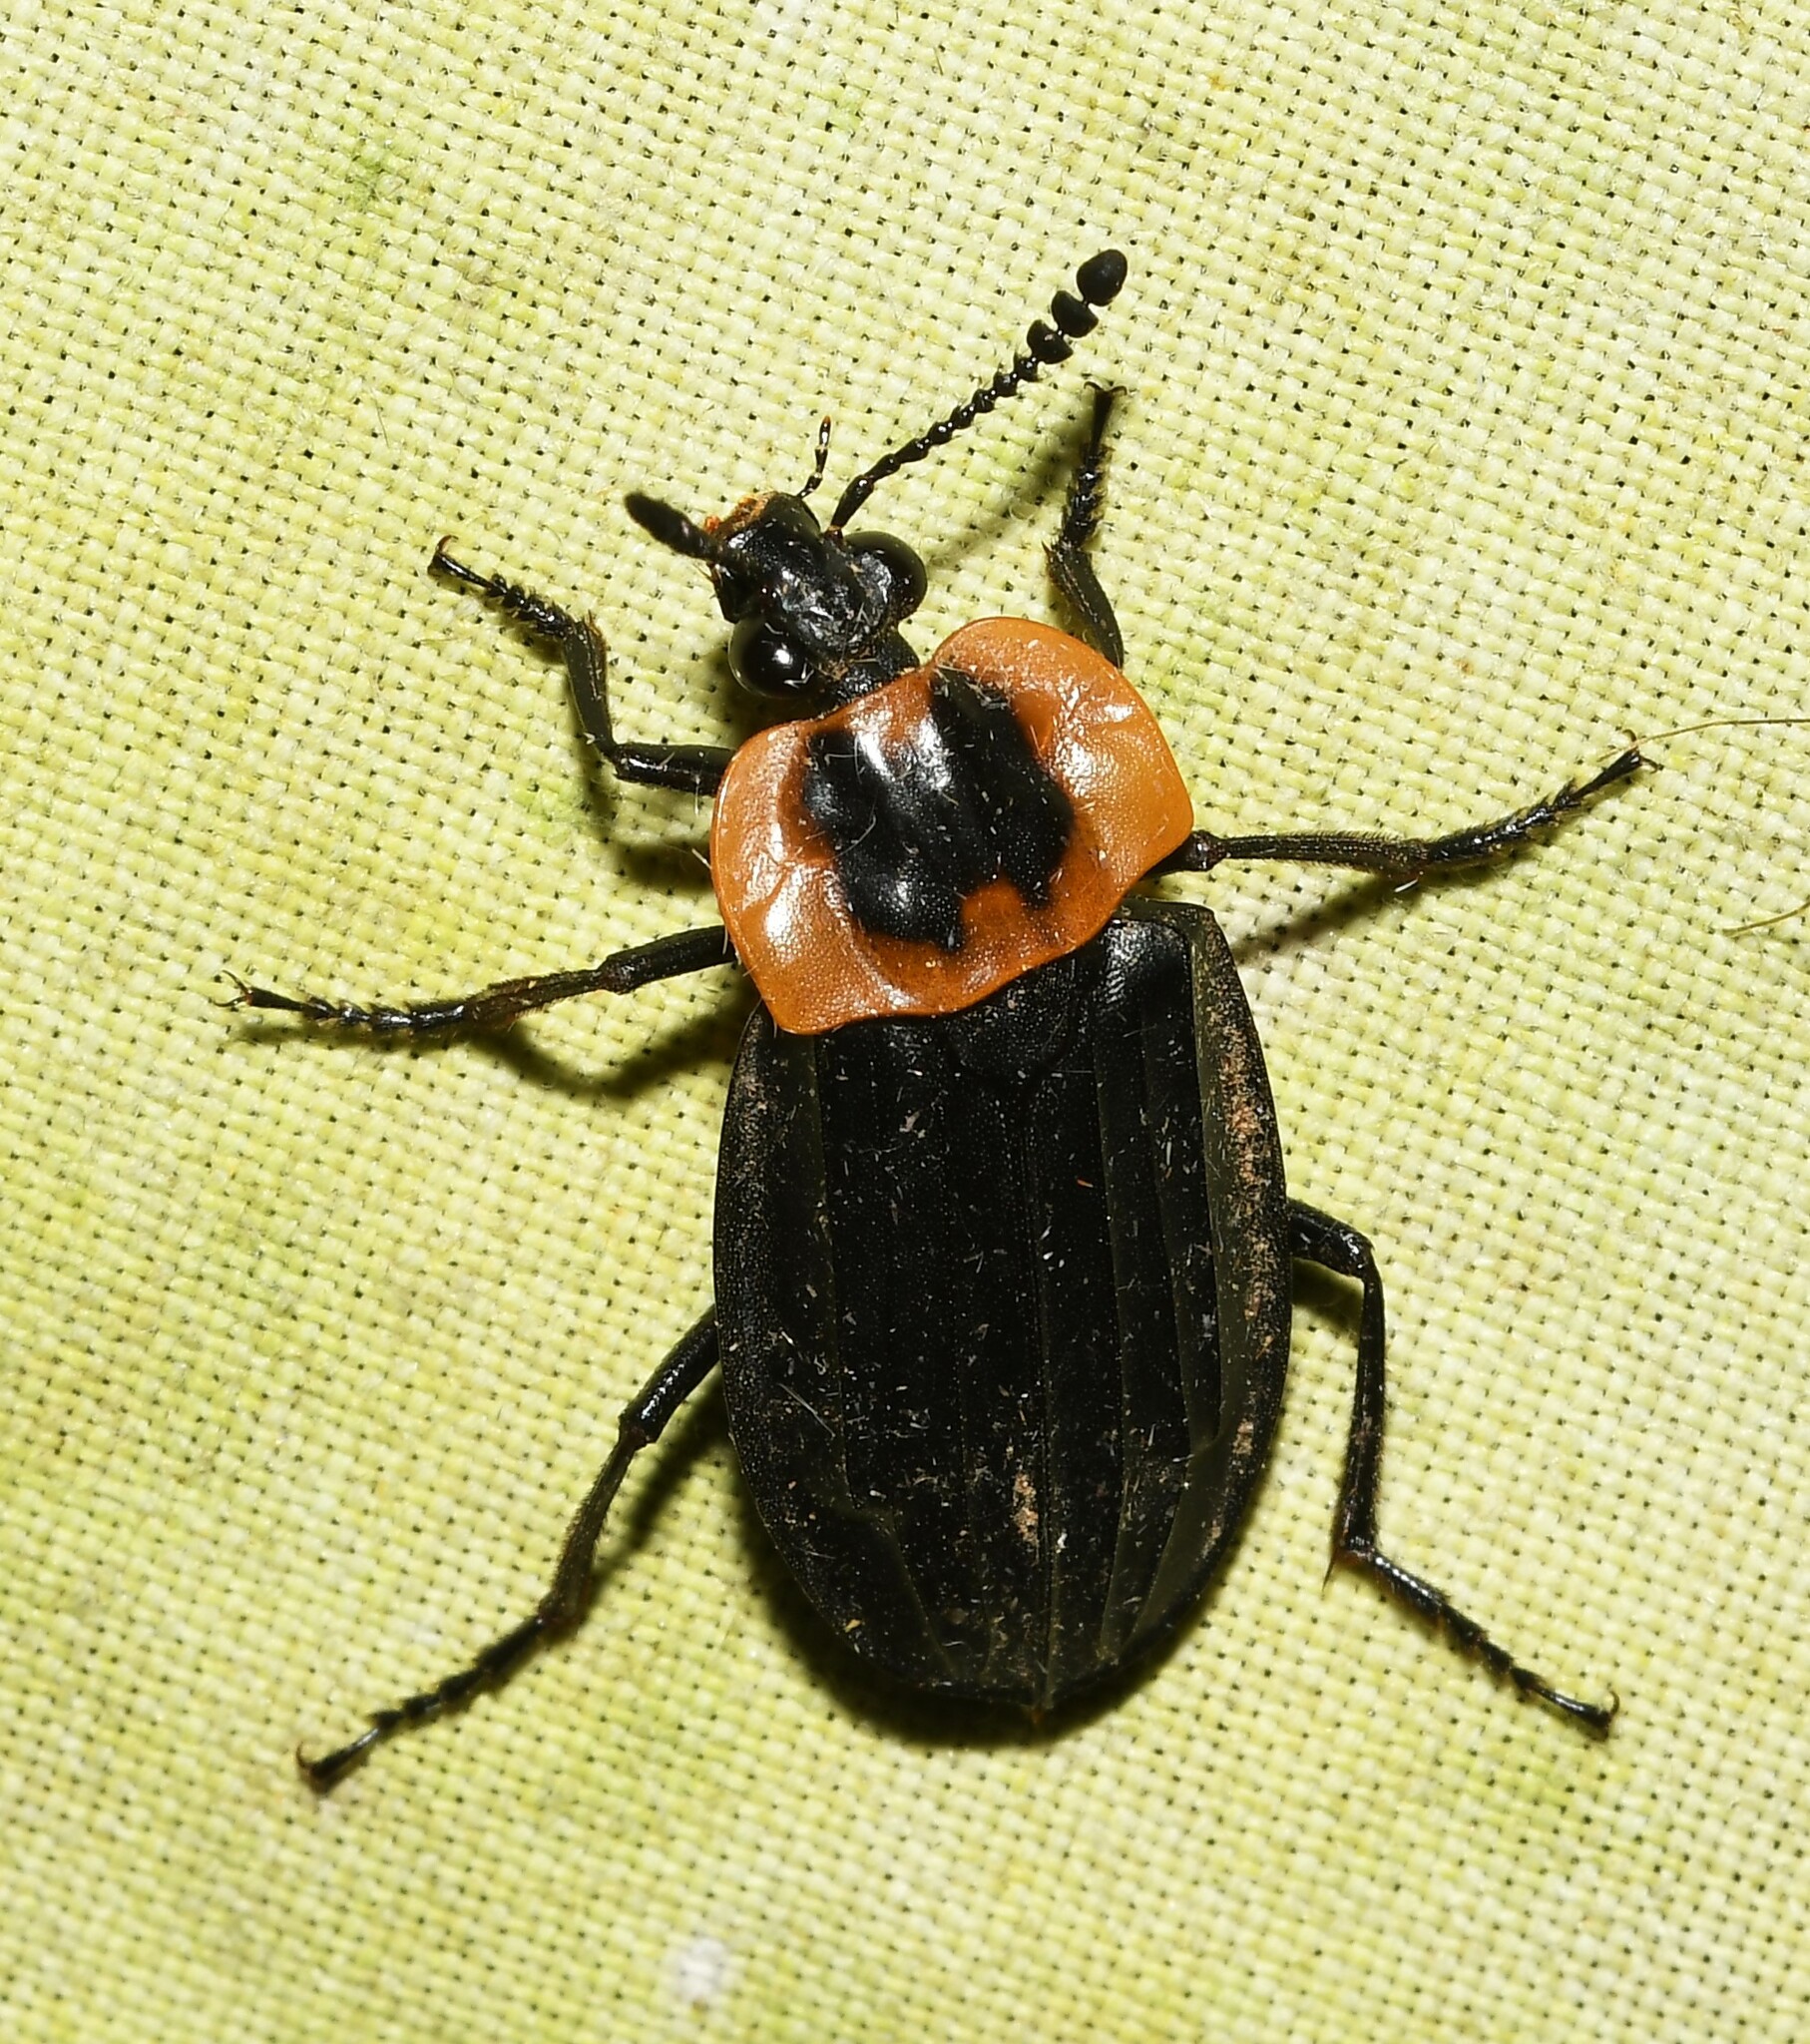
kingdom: Animalia
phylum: Arthropoda
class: Insecta
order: Coleoptera
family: Staphylinidae
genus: Oxelytrum
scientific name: Oxelytrum discicolle
